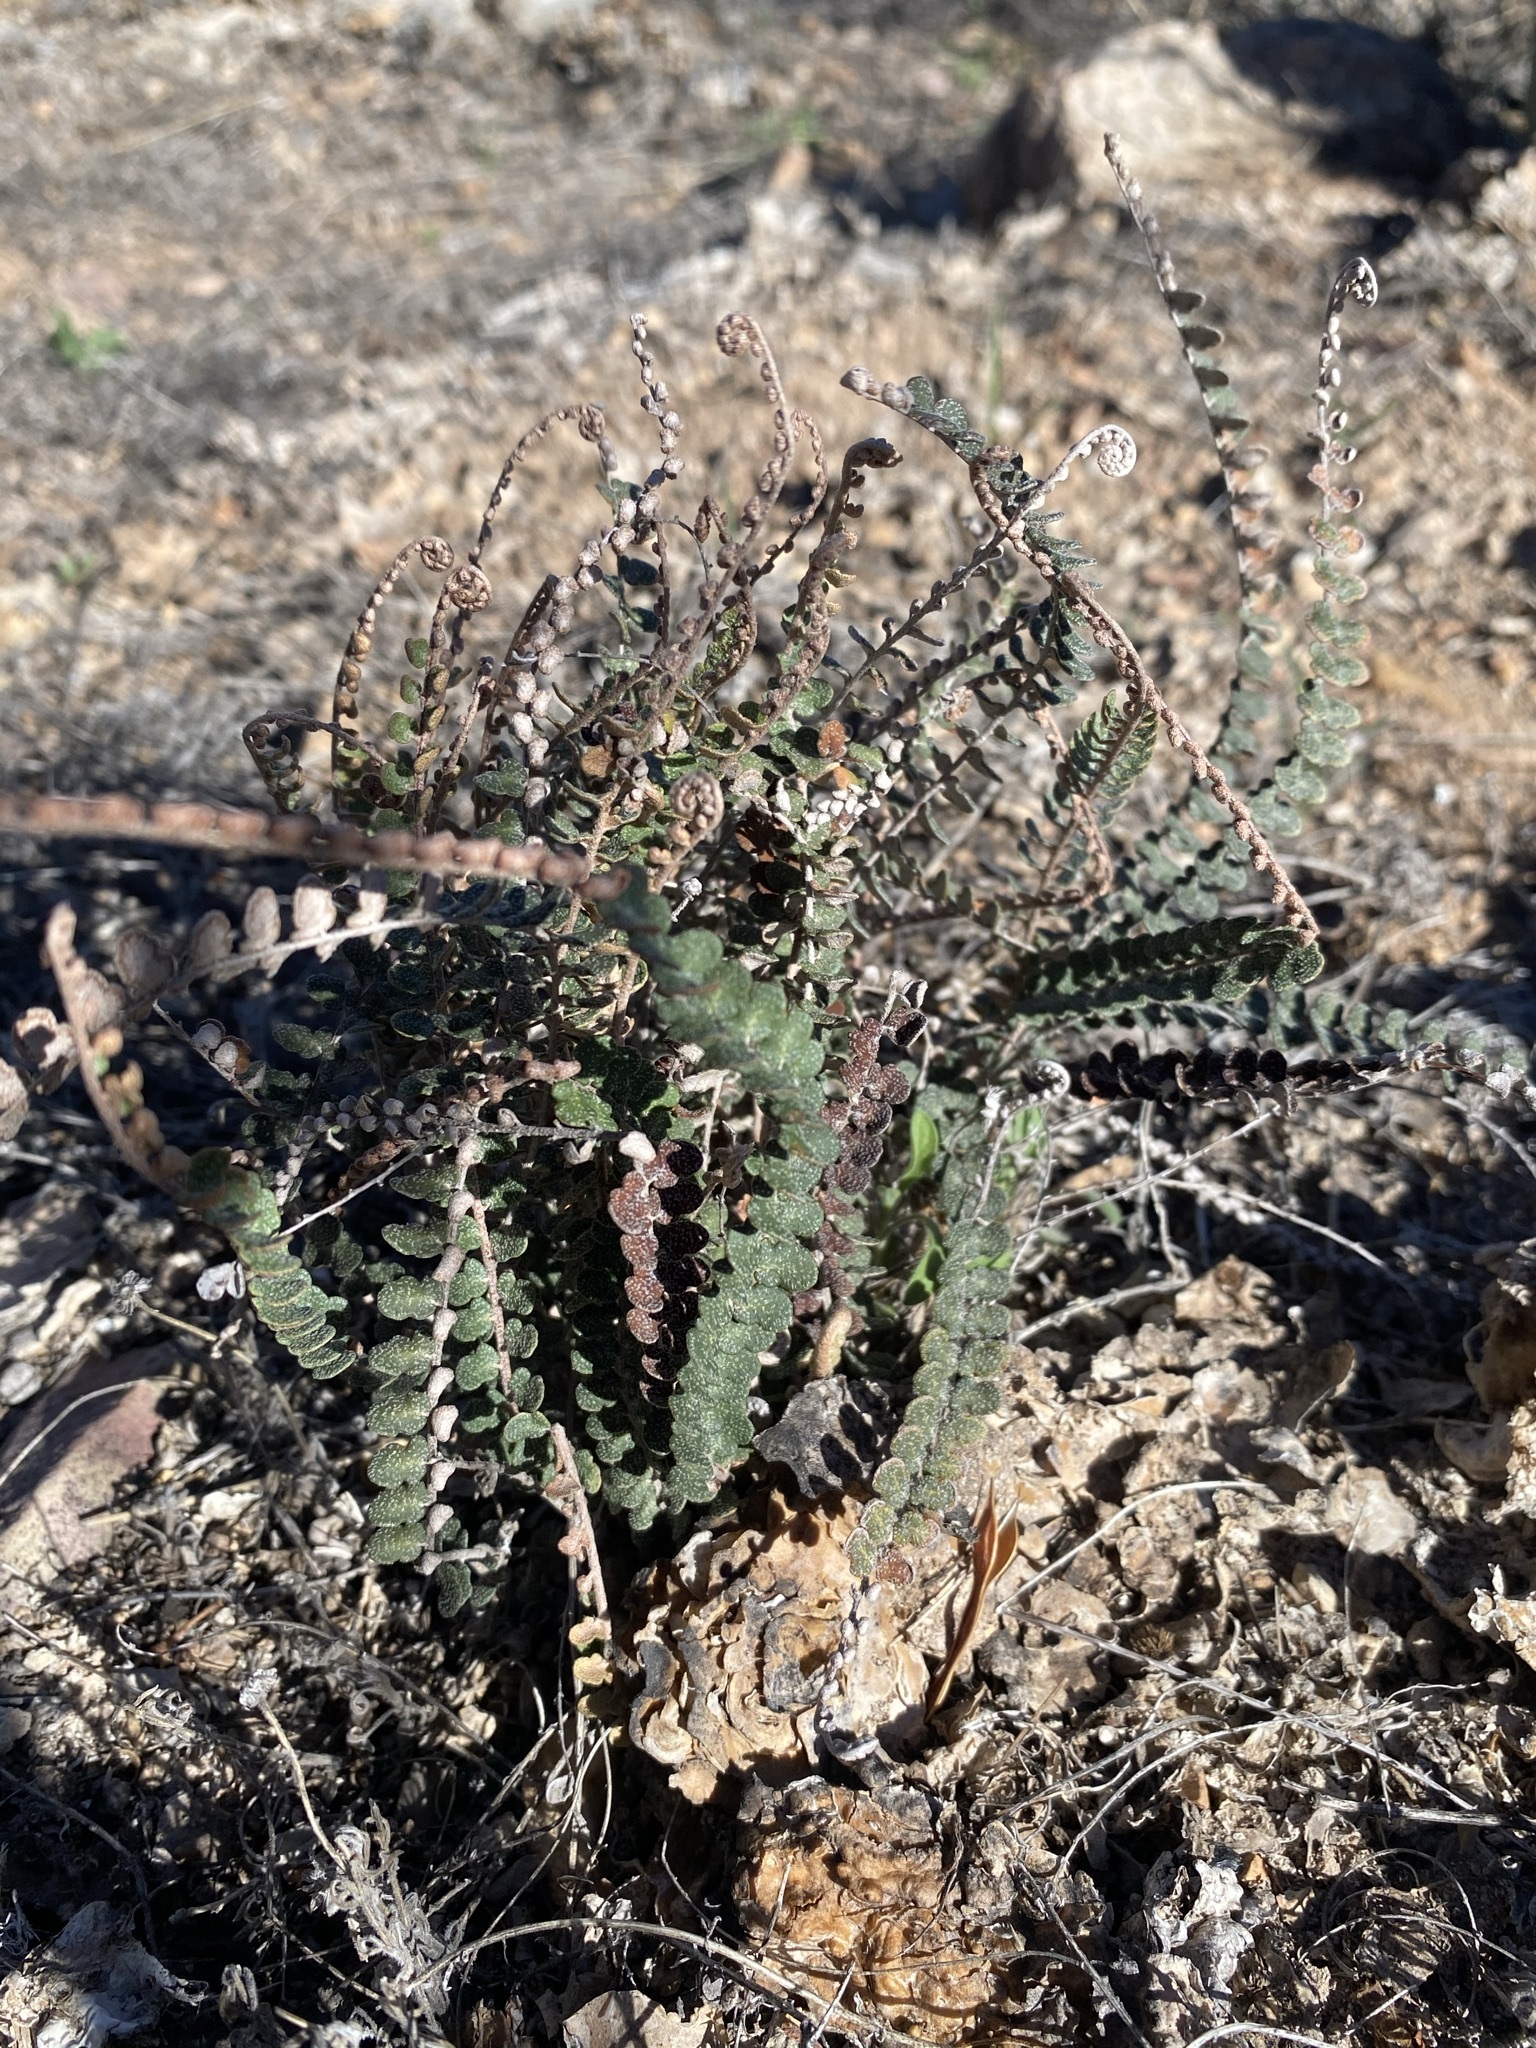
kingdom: Plantae
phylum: Tracheophyta
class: Polypodiopsida
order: Polypodiales
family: Pteridaceae
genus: Astrolepis
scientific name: Astrolepis cochisensis
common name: Scaly cloak fern
